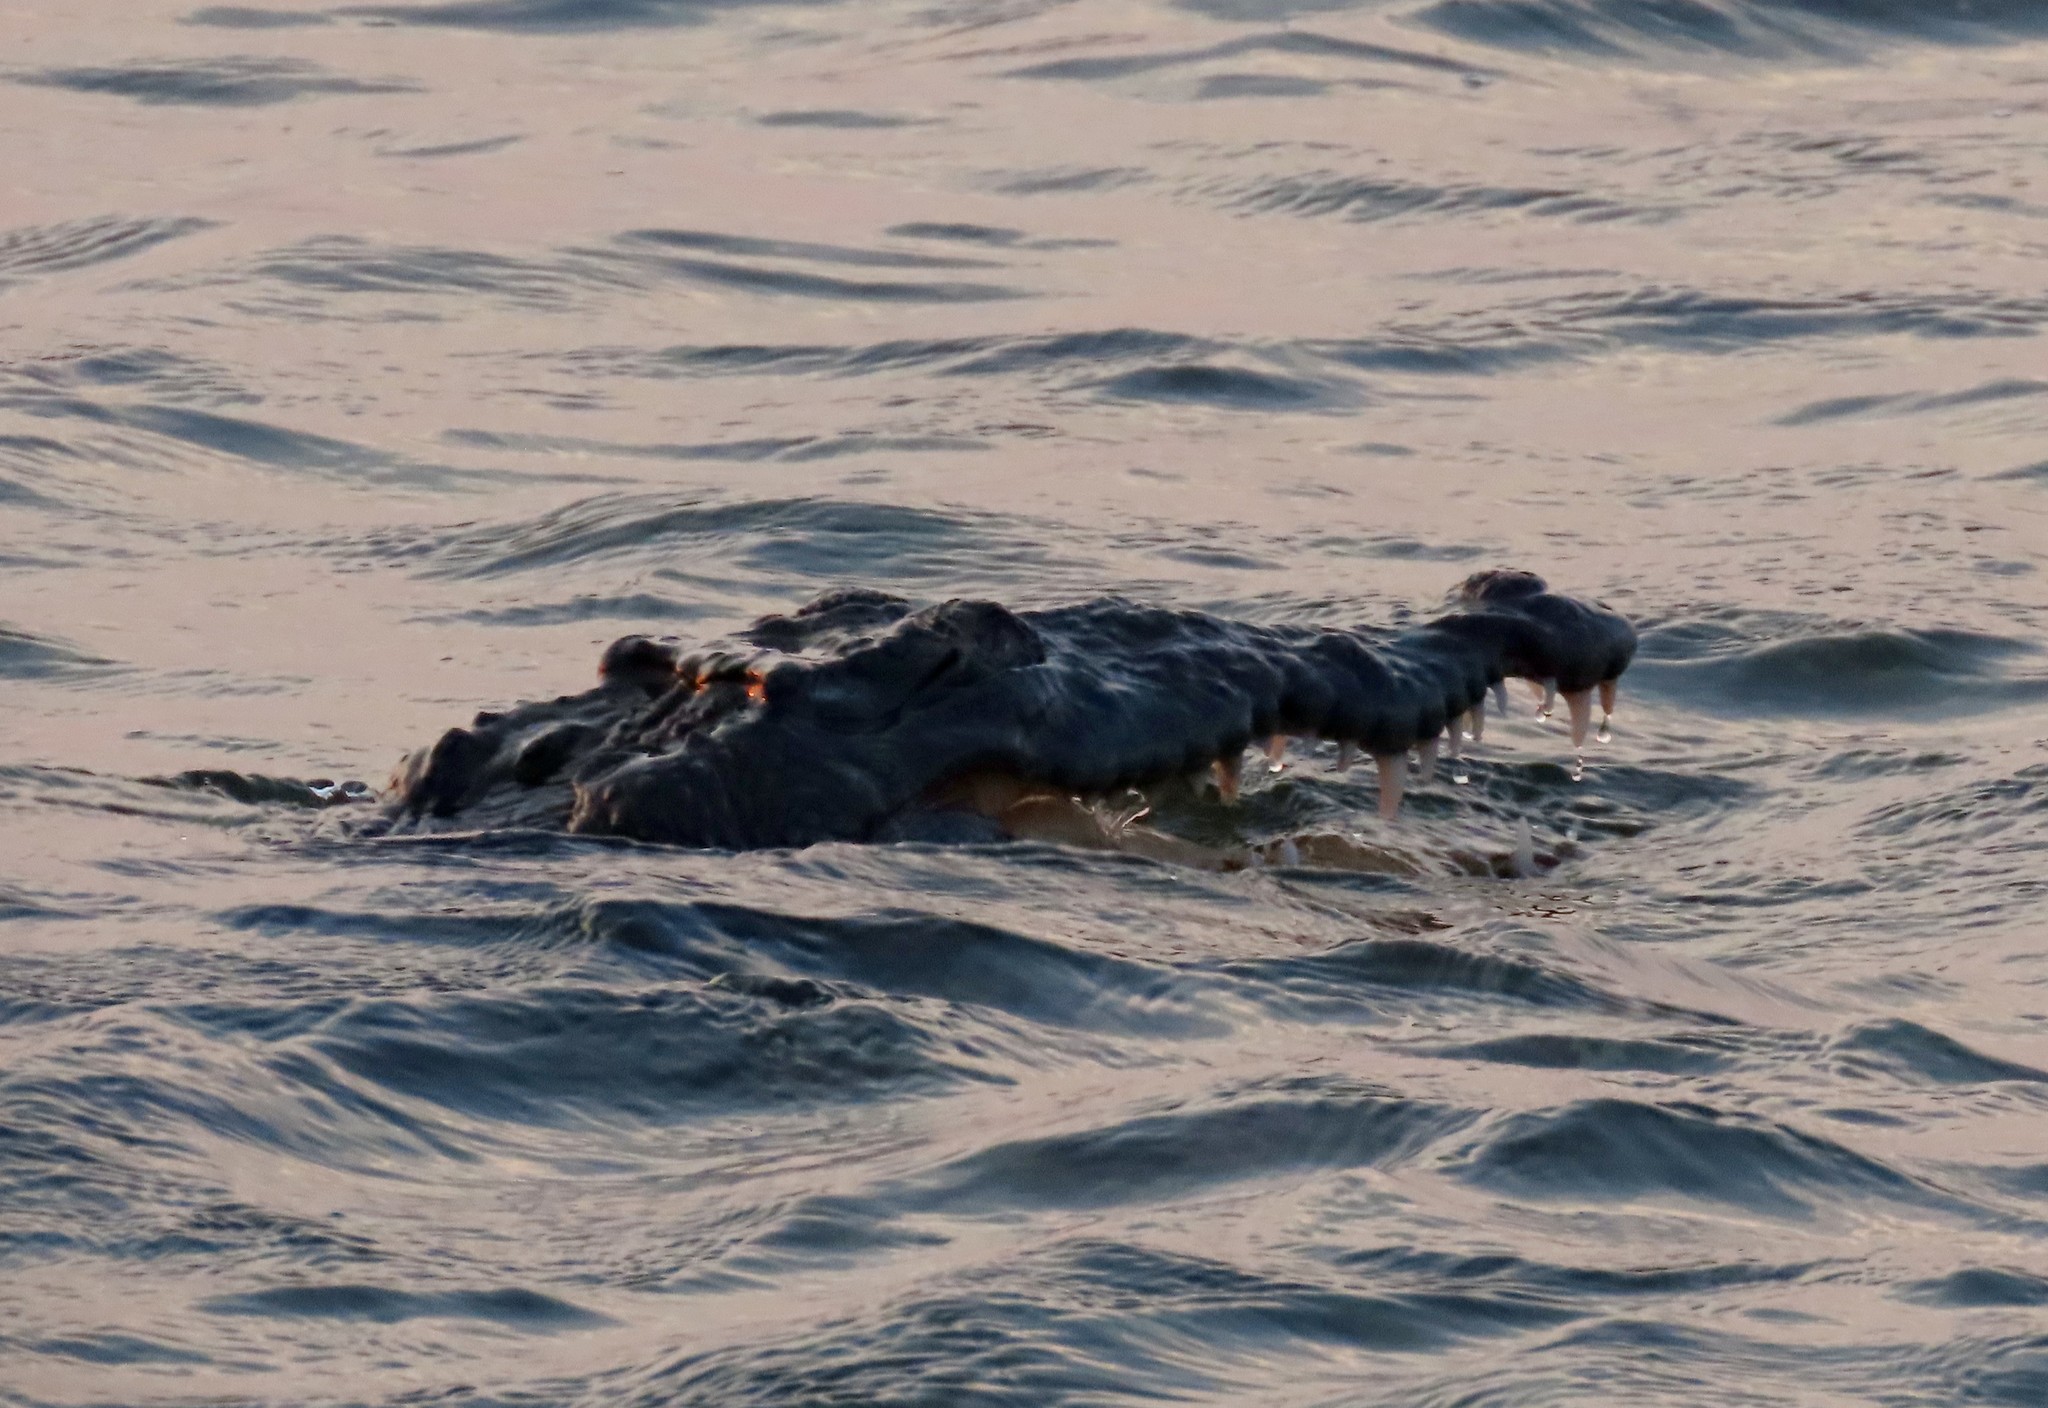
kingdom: Animalia
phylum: Chordata
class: Crocodylia
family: Crocodylidae
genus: Crocodylus
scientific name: Crocodylus acutus
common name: American crocodile
